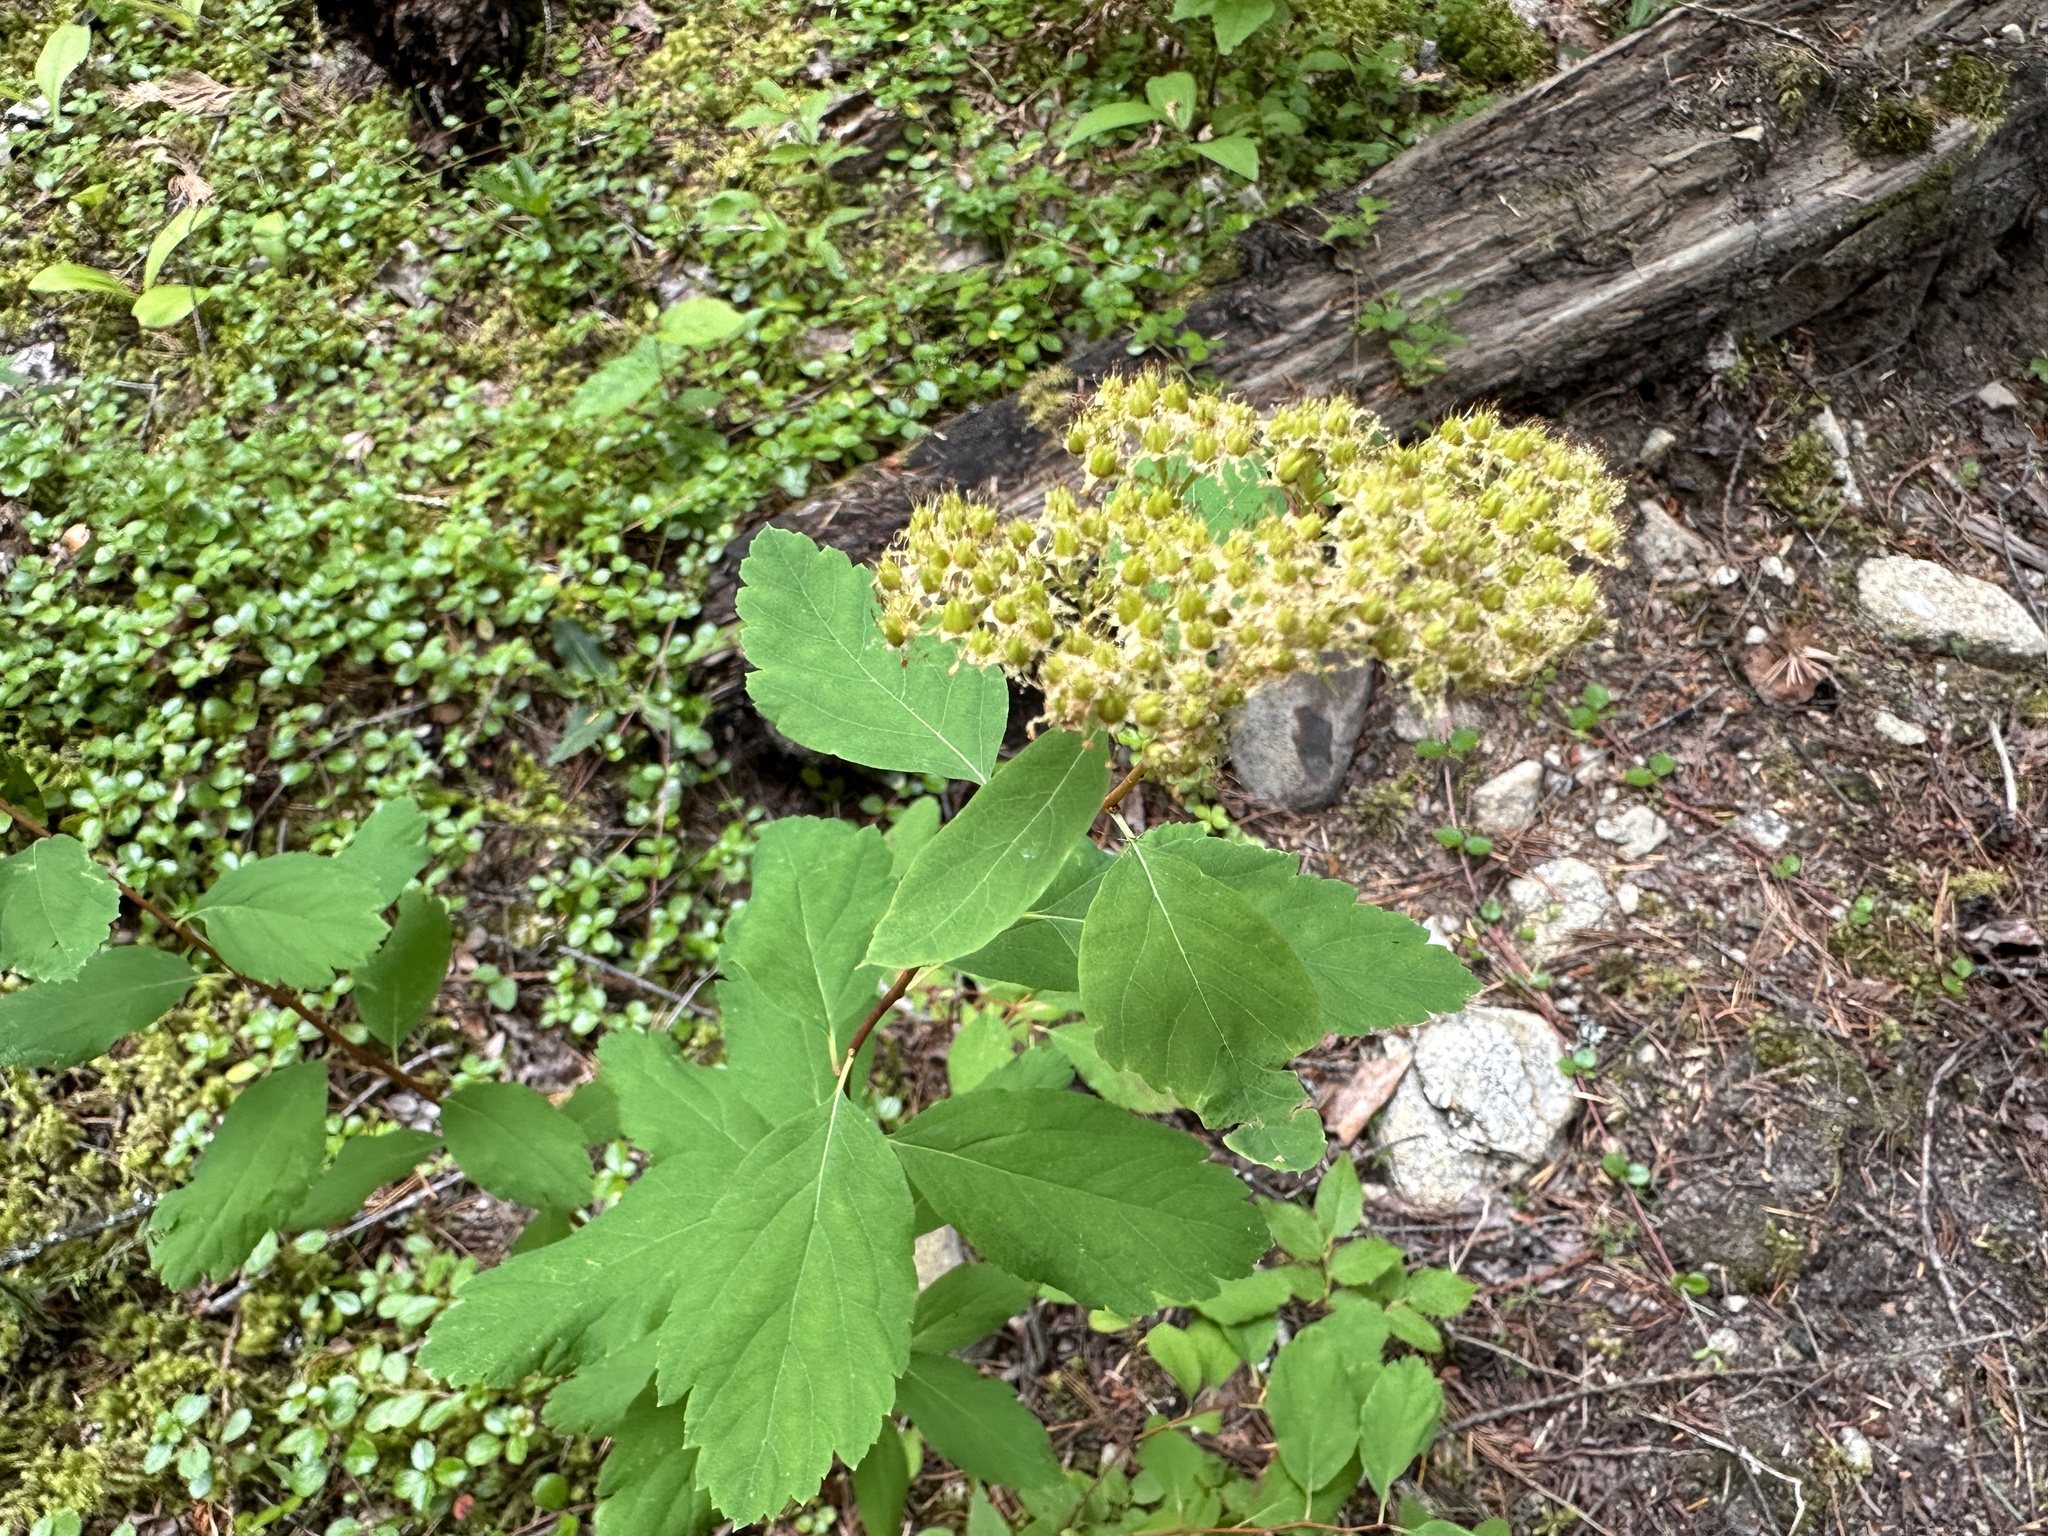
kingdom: Plantae
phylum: Tracheophyta
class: Magnoliopsida
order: Rosales
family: Rosaceae
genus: Spiraea
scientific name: Spiraea lucida
